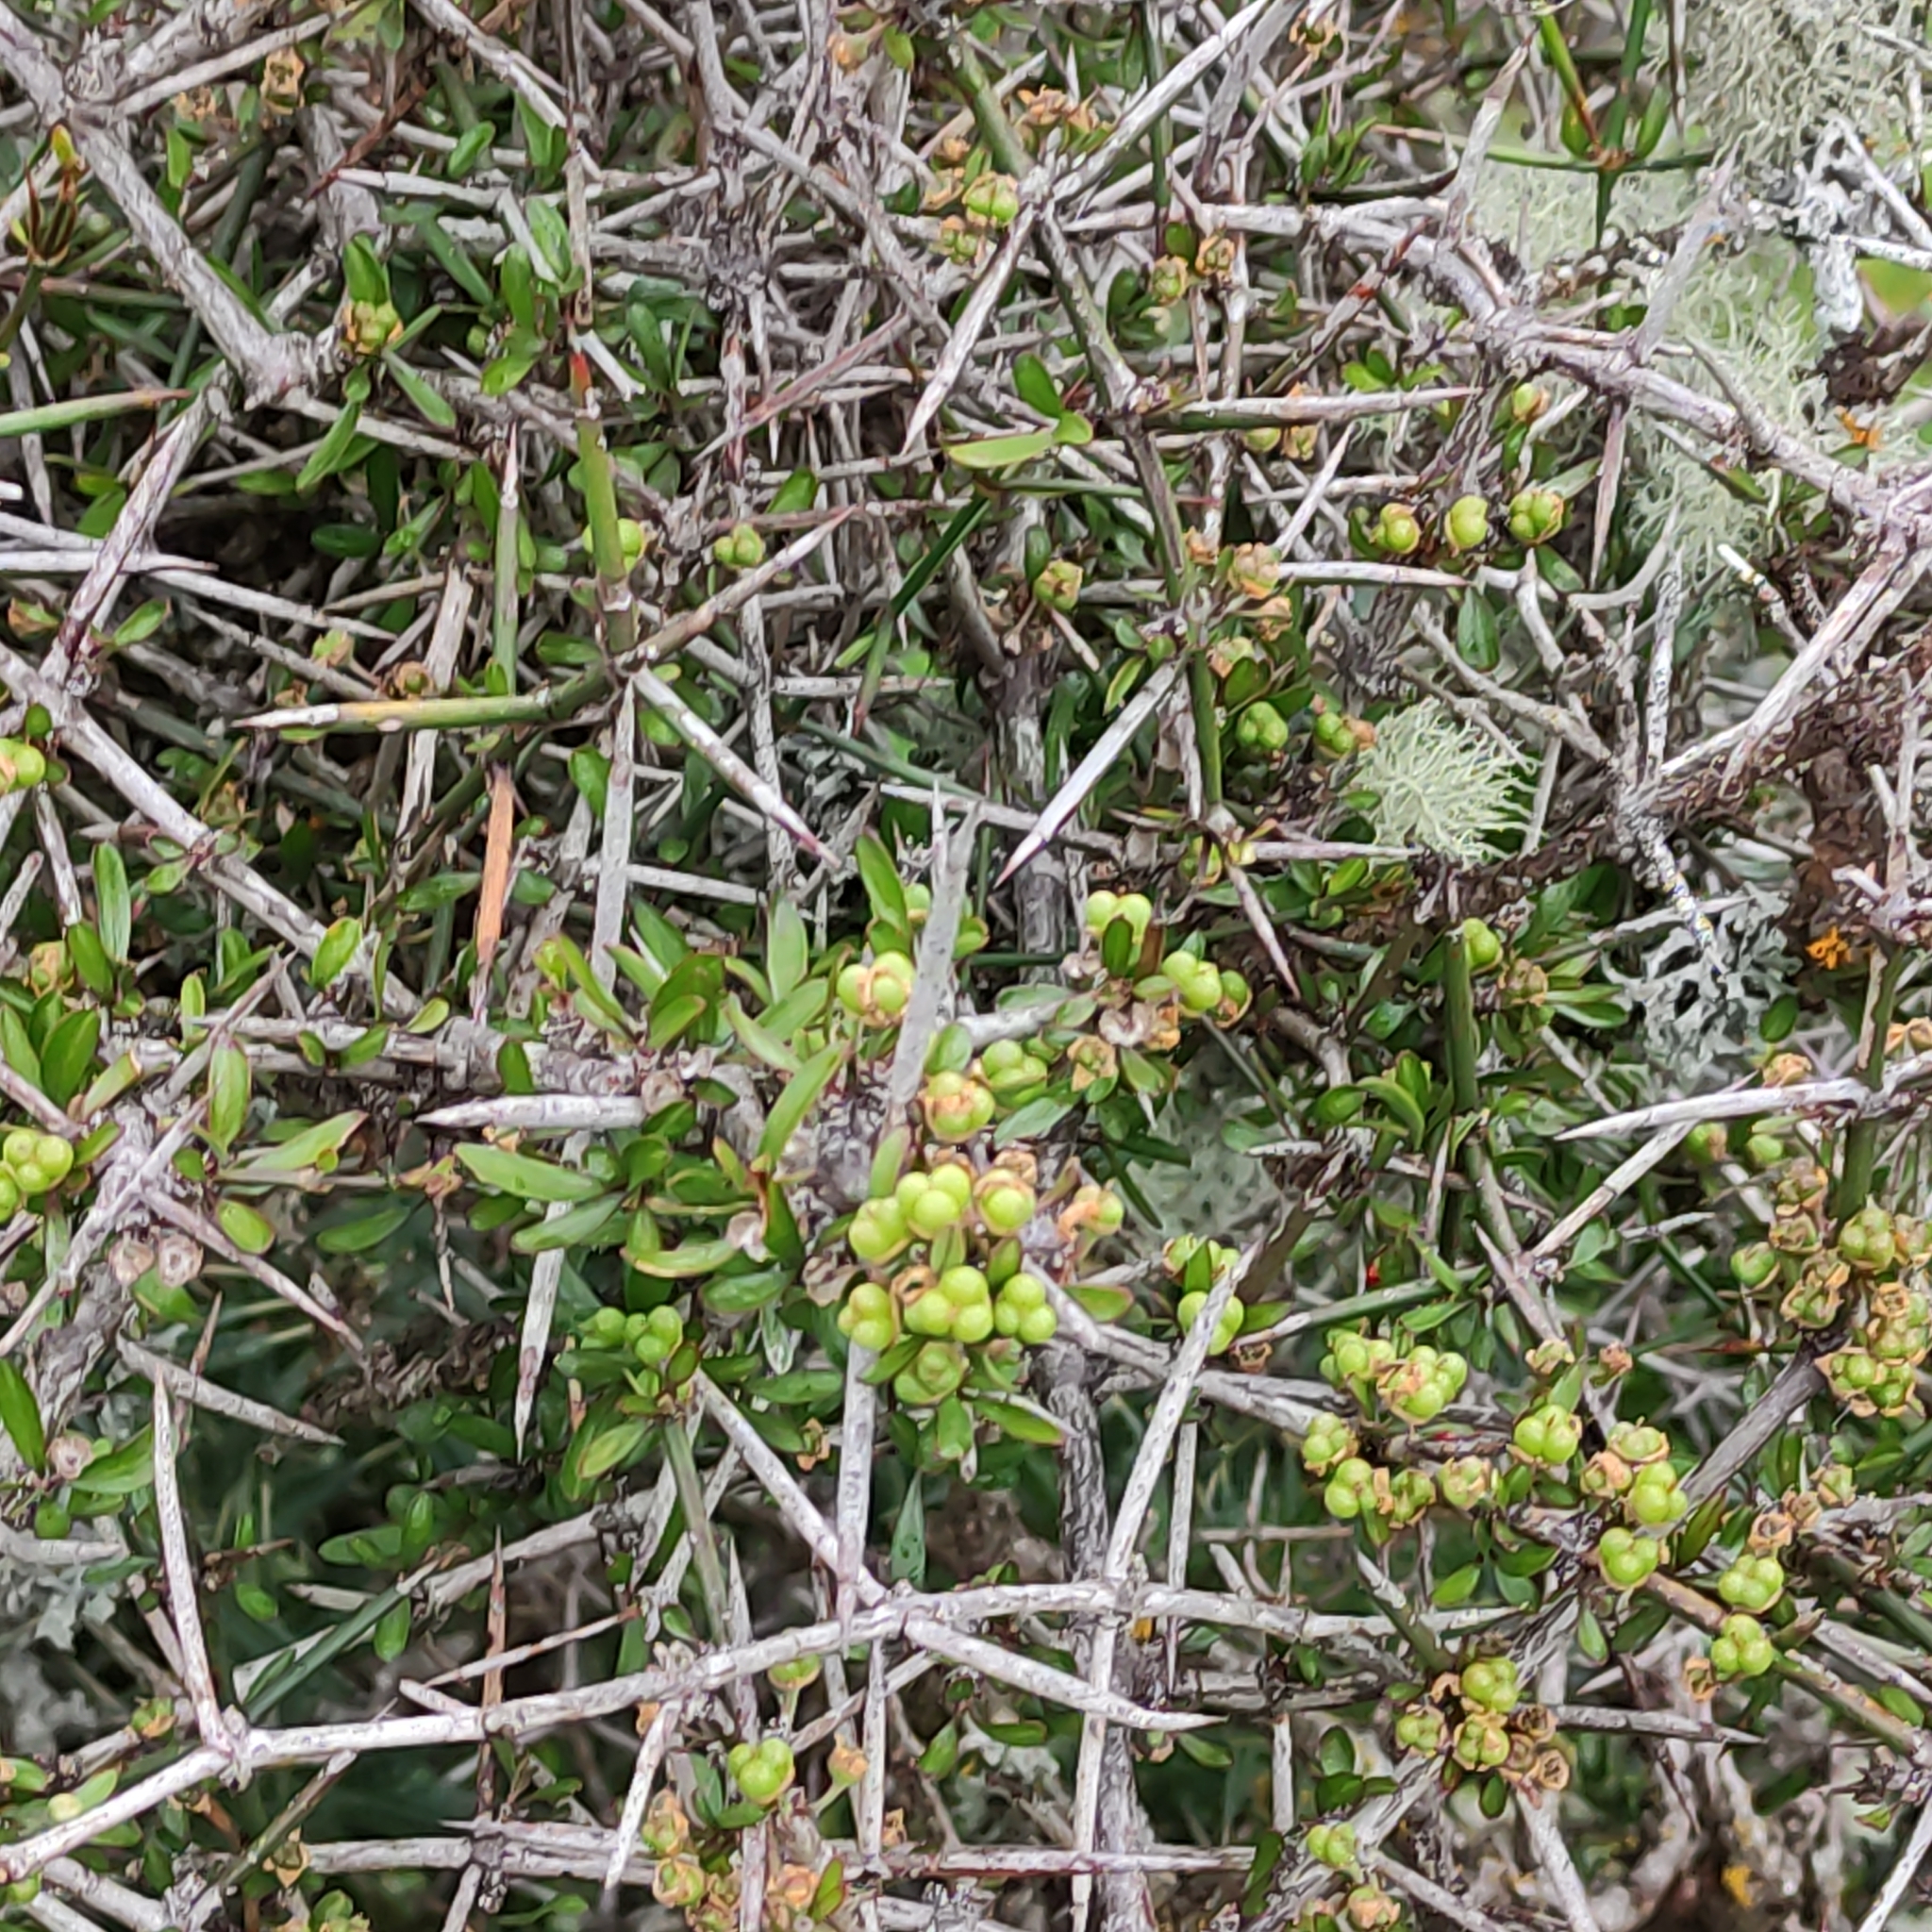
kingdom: Plantae
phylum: Tracheophyta
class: Magnoliopsida
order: Rosales
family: Rhamnaceae
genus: Discaria
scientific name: Discaria toumatou
